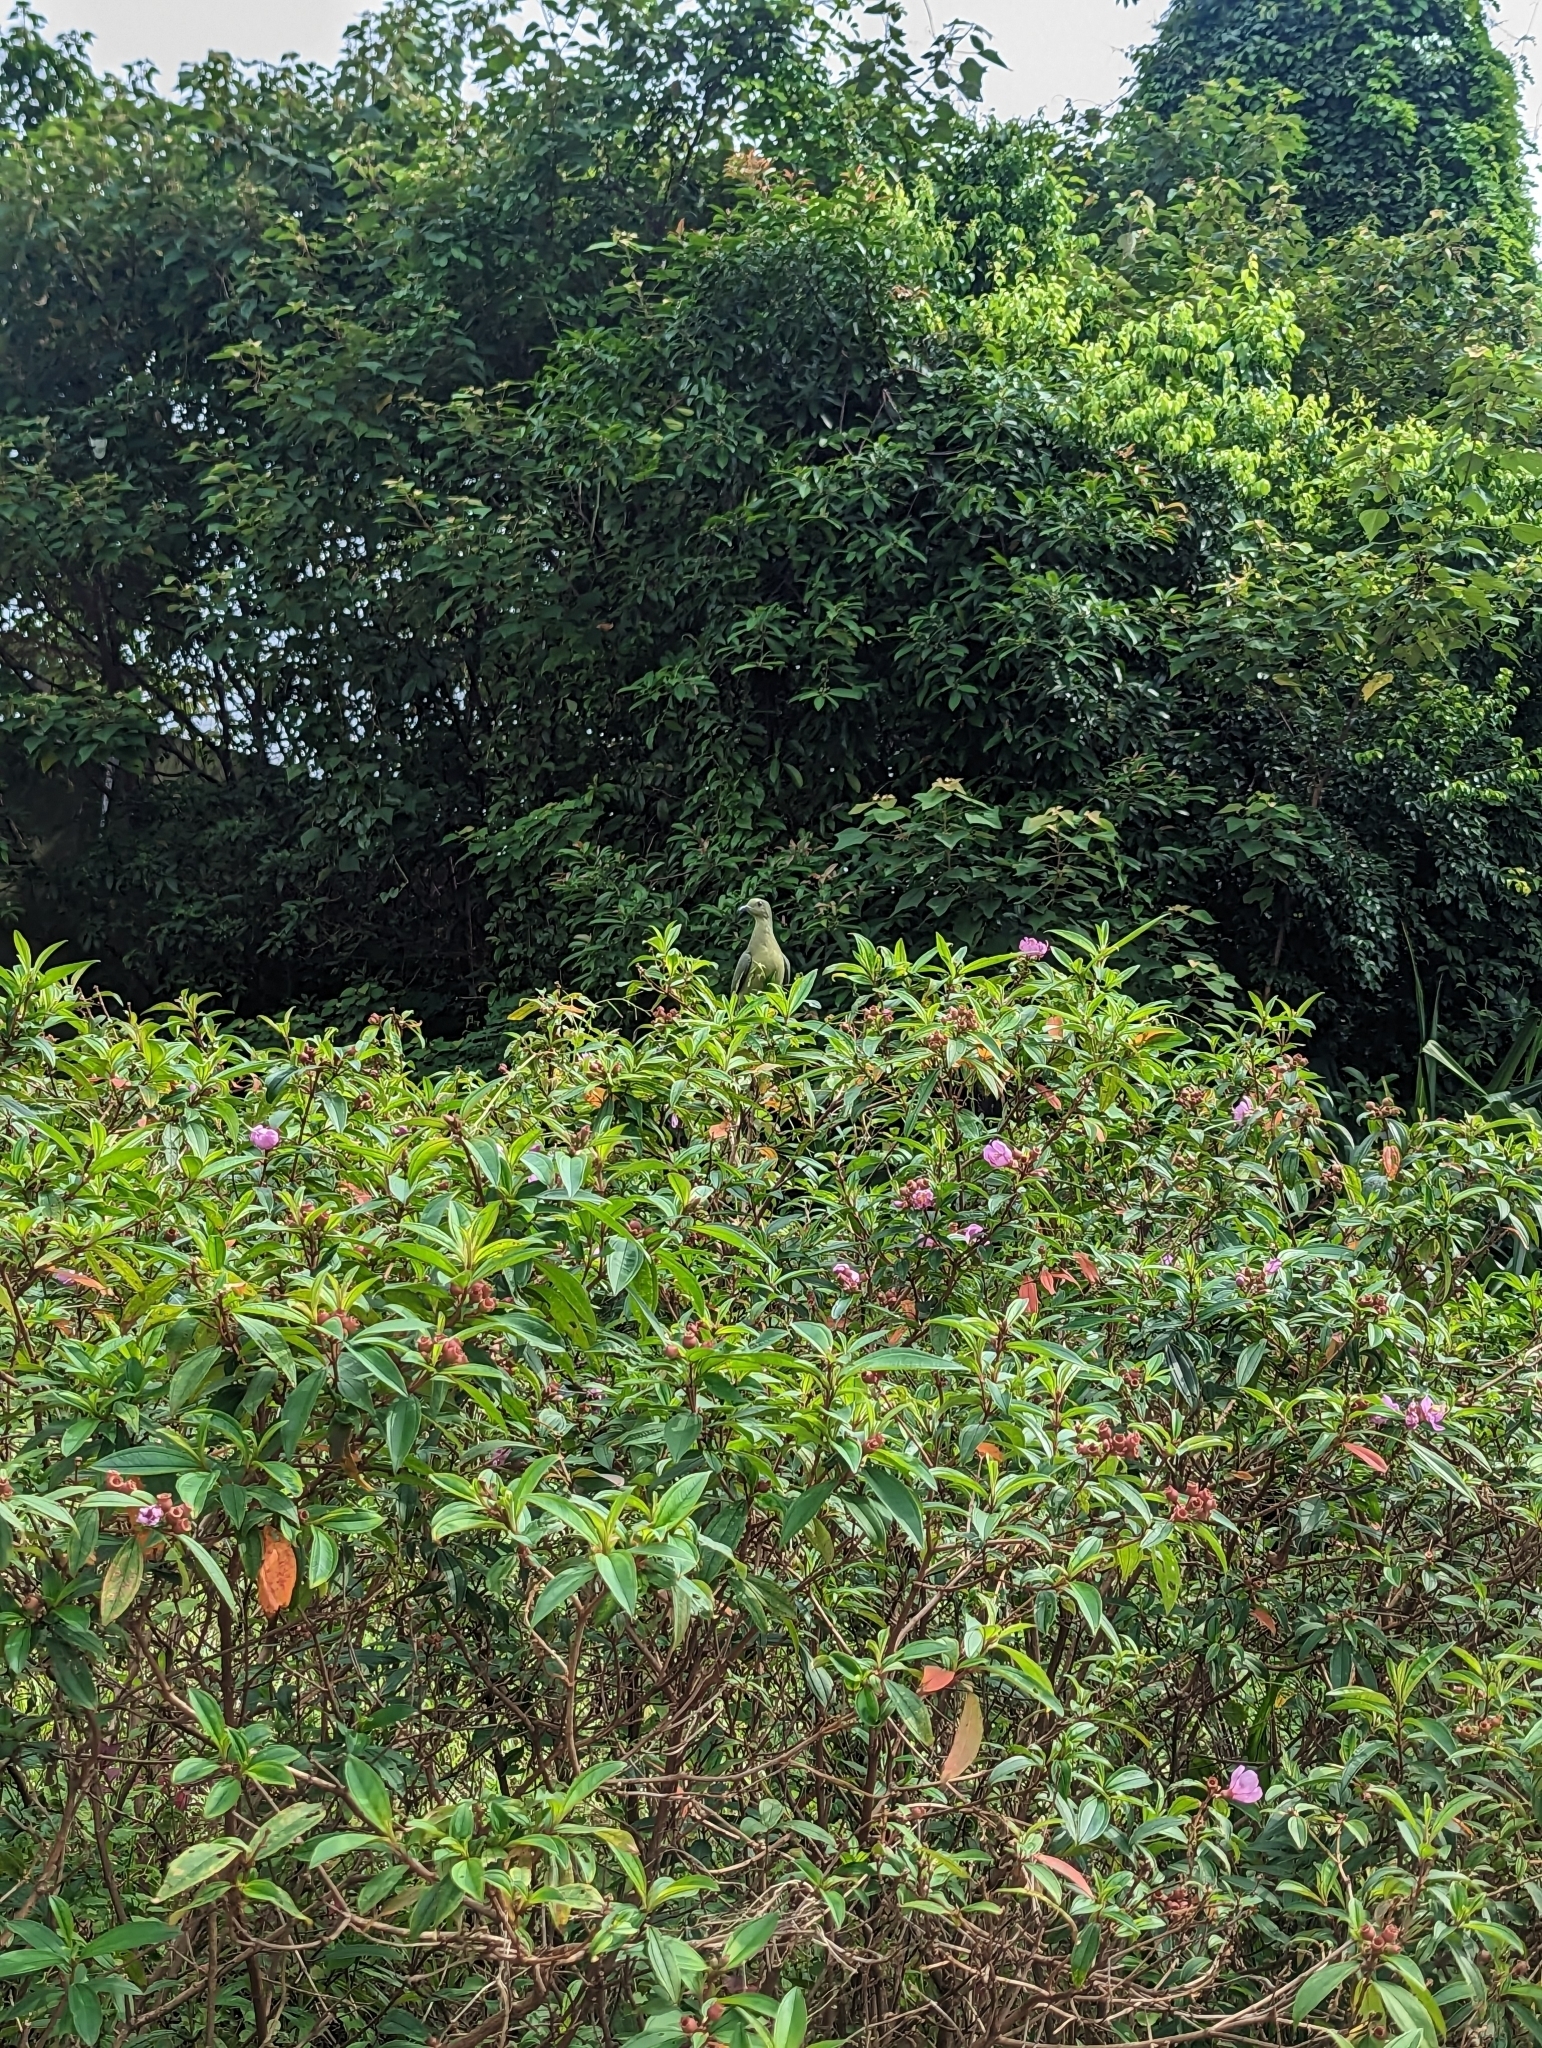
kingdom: Animalia
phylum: Chordata
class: Aves
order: Columbiformes
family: Columbidae
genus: Treron
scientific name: Treron vernans
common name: Pink-necked green pigeon
